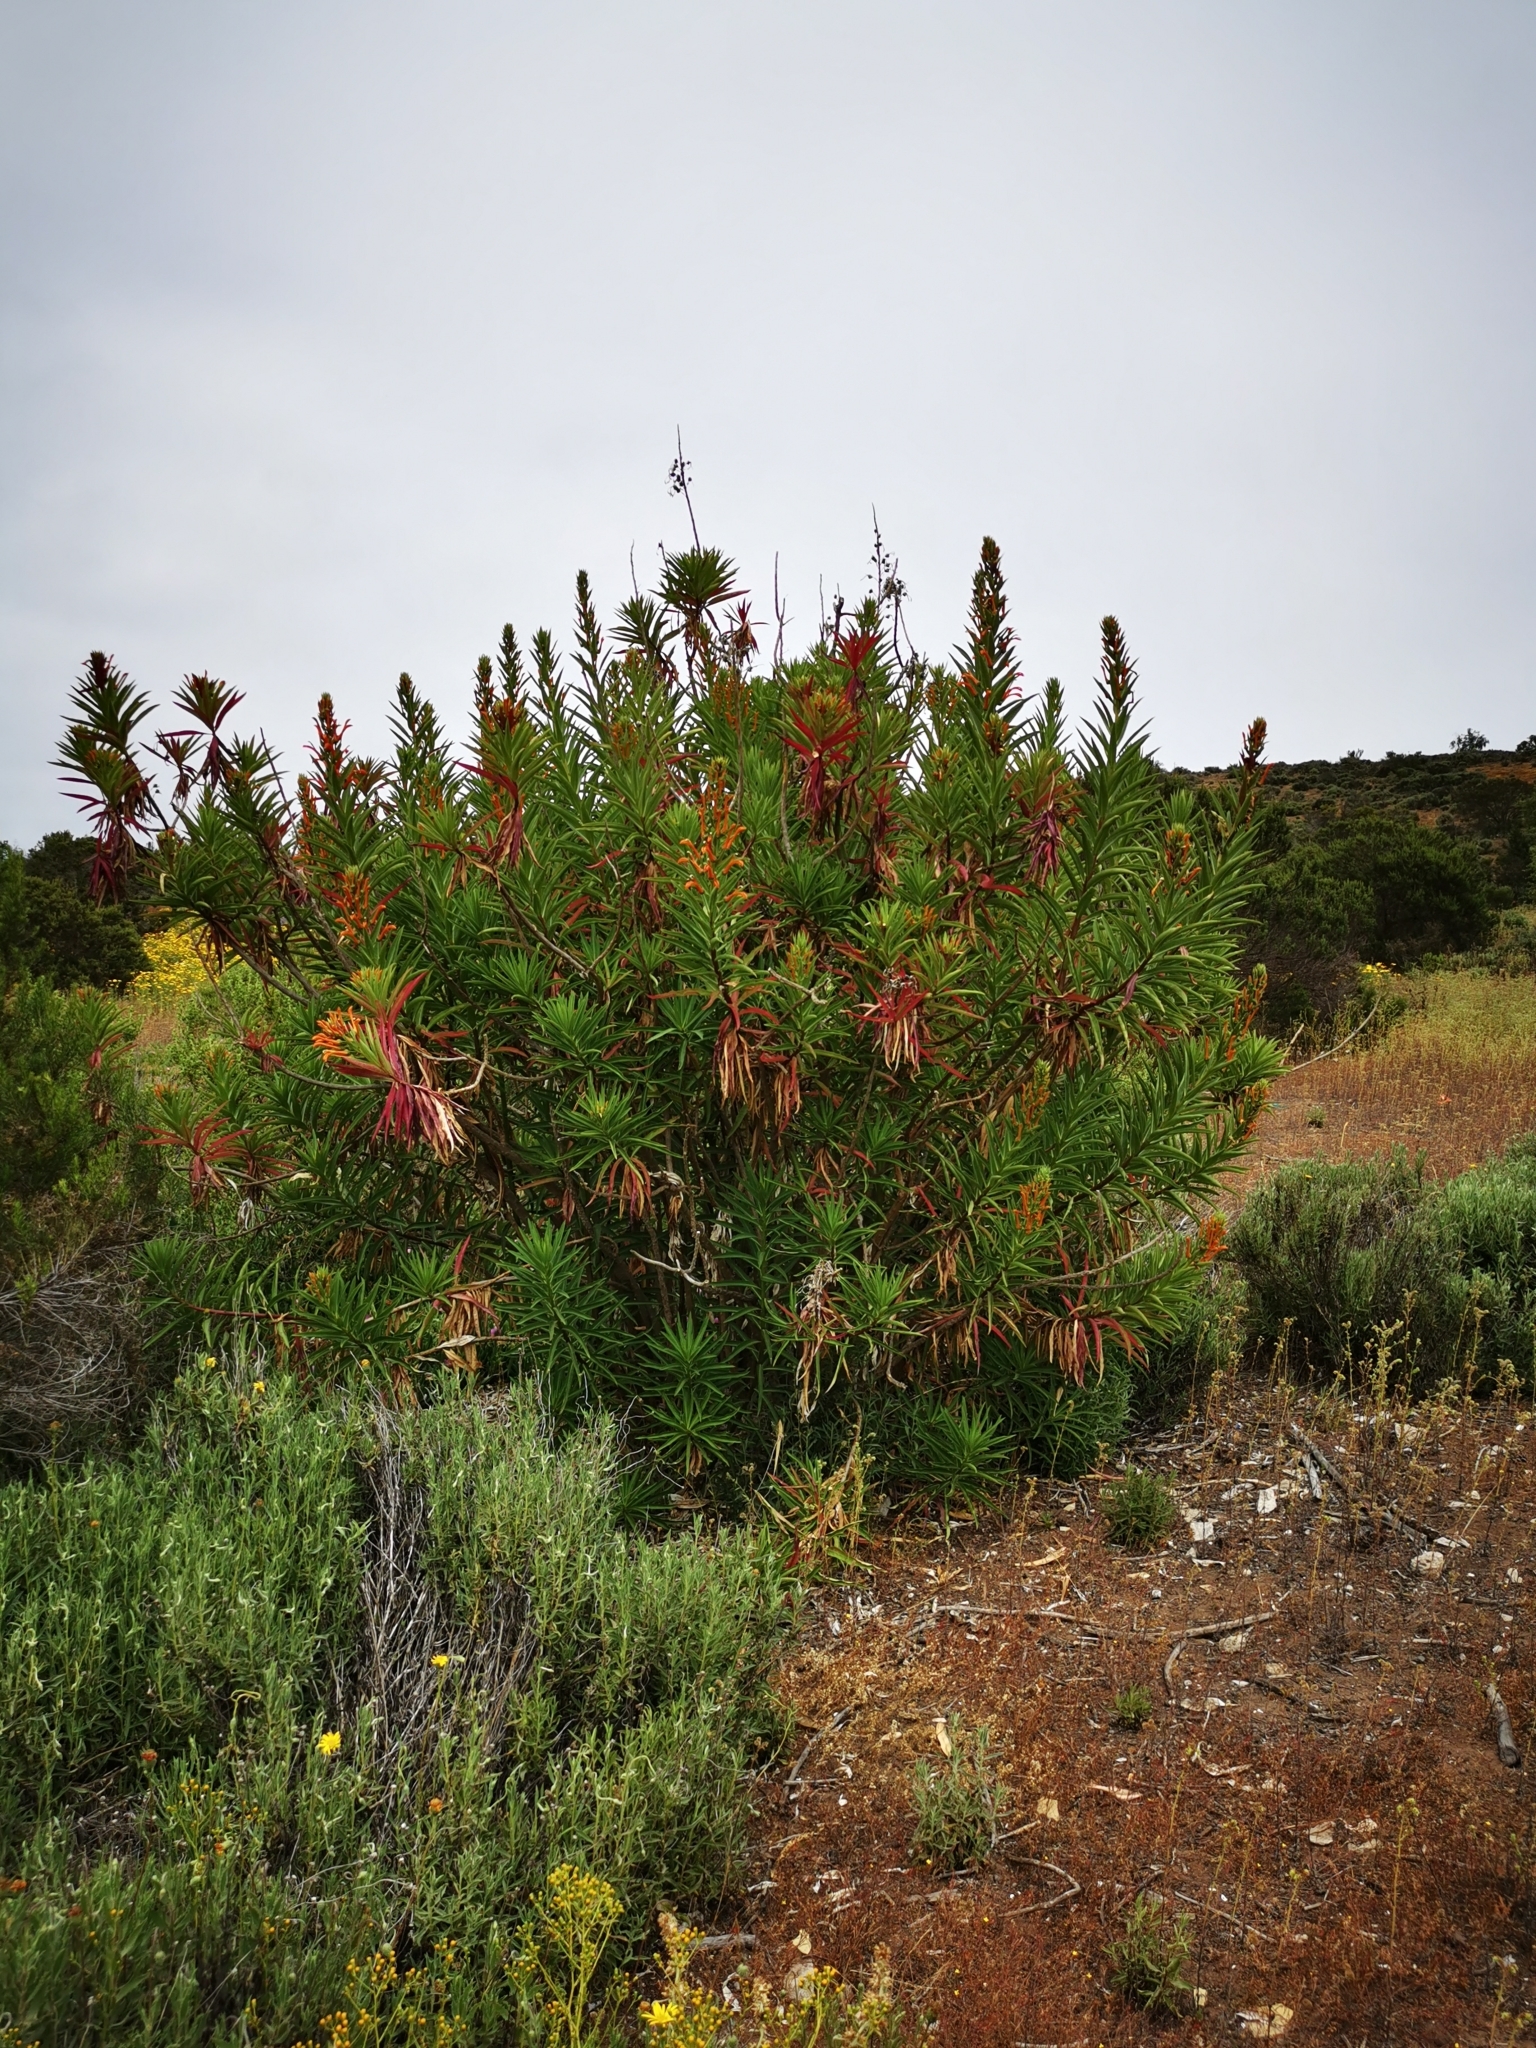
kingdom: Plantae
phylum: Tracheophyta
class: Magnoliopsida
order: Asterales
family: Campanulaceae
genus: Lobelia
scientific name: Lobelia excelsa
